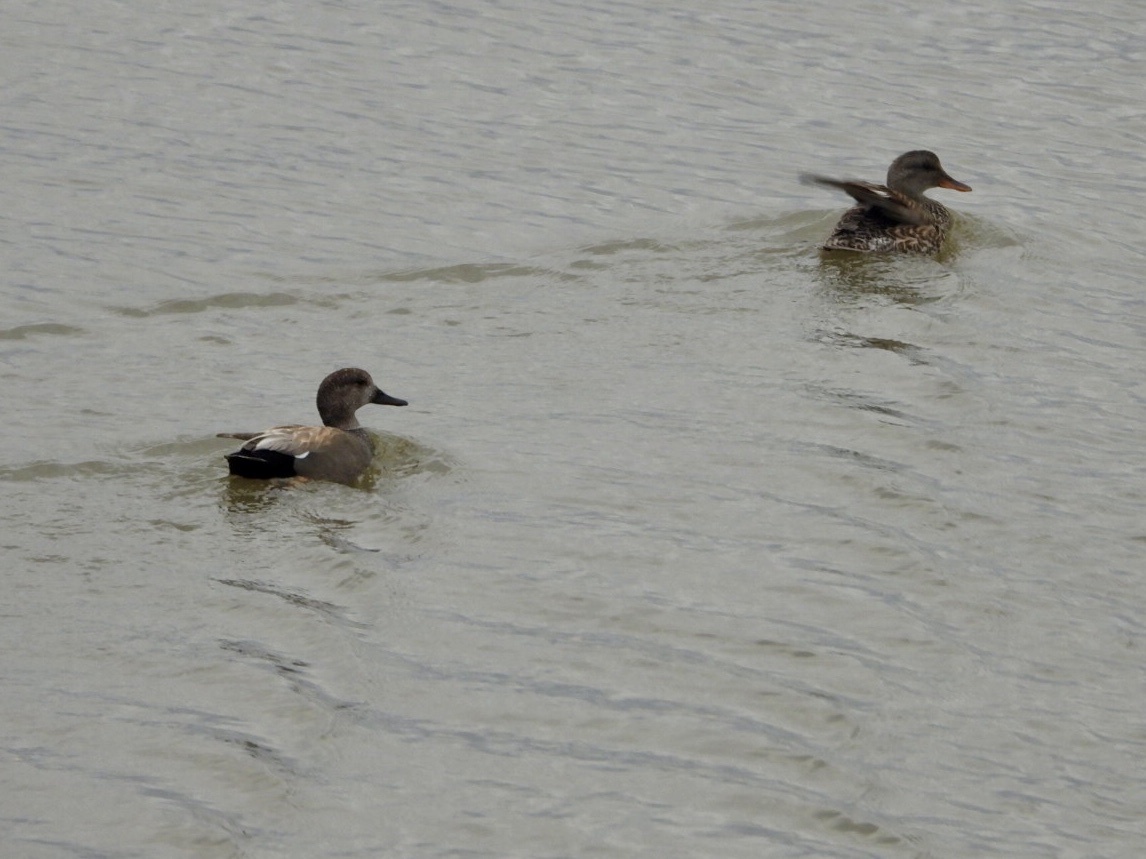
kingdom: Animalia
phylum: Chordata
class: Aves
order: Anseriformes
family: Anatidae
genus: Mareca
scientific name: Mareca strepera
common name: Gadwall
